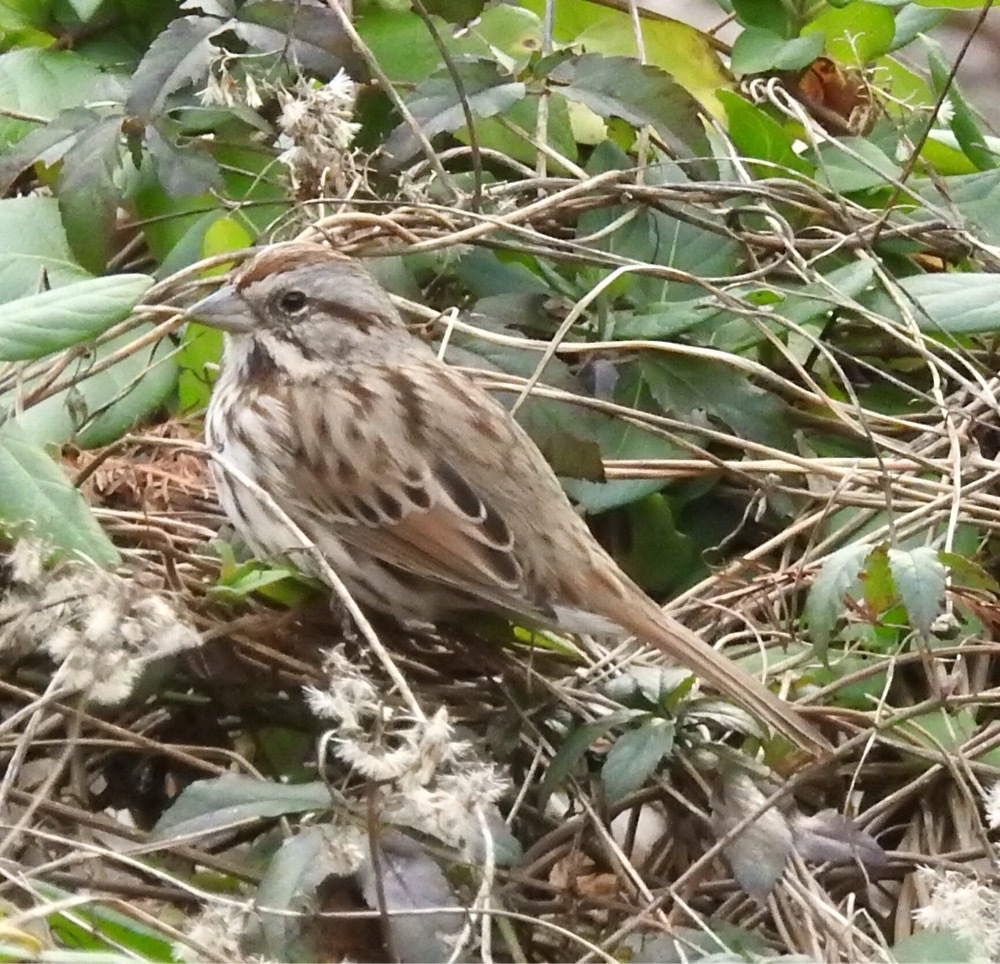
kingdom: Animalia
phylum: Chordata
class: Aves
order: Passeriformes
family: Passerellidae
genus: Melospiza
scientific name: Melospiza melodia
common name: Song sparrow
